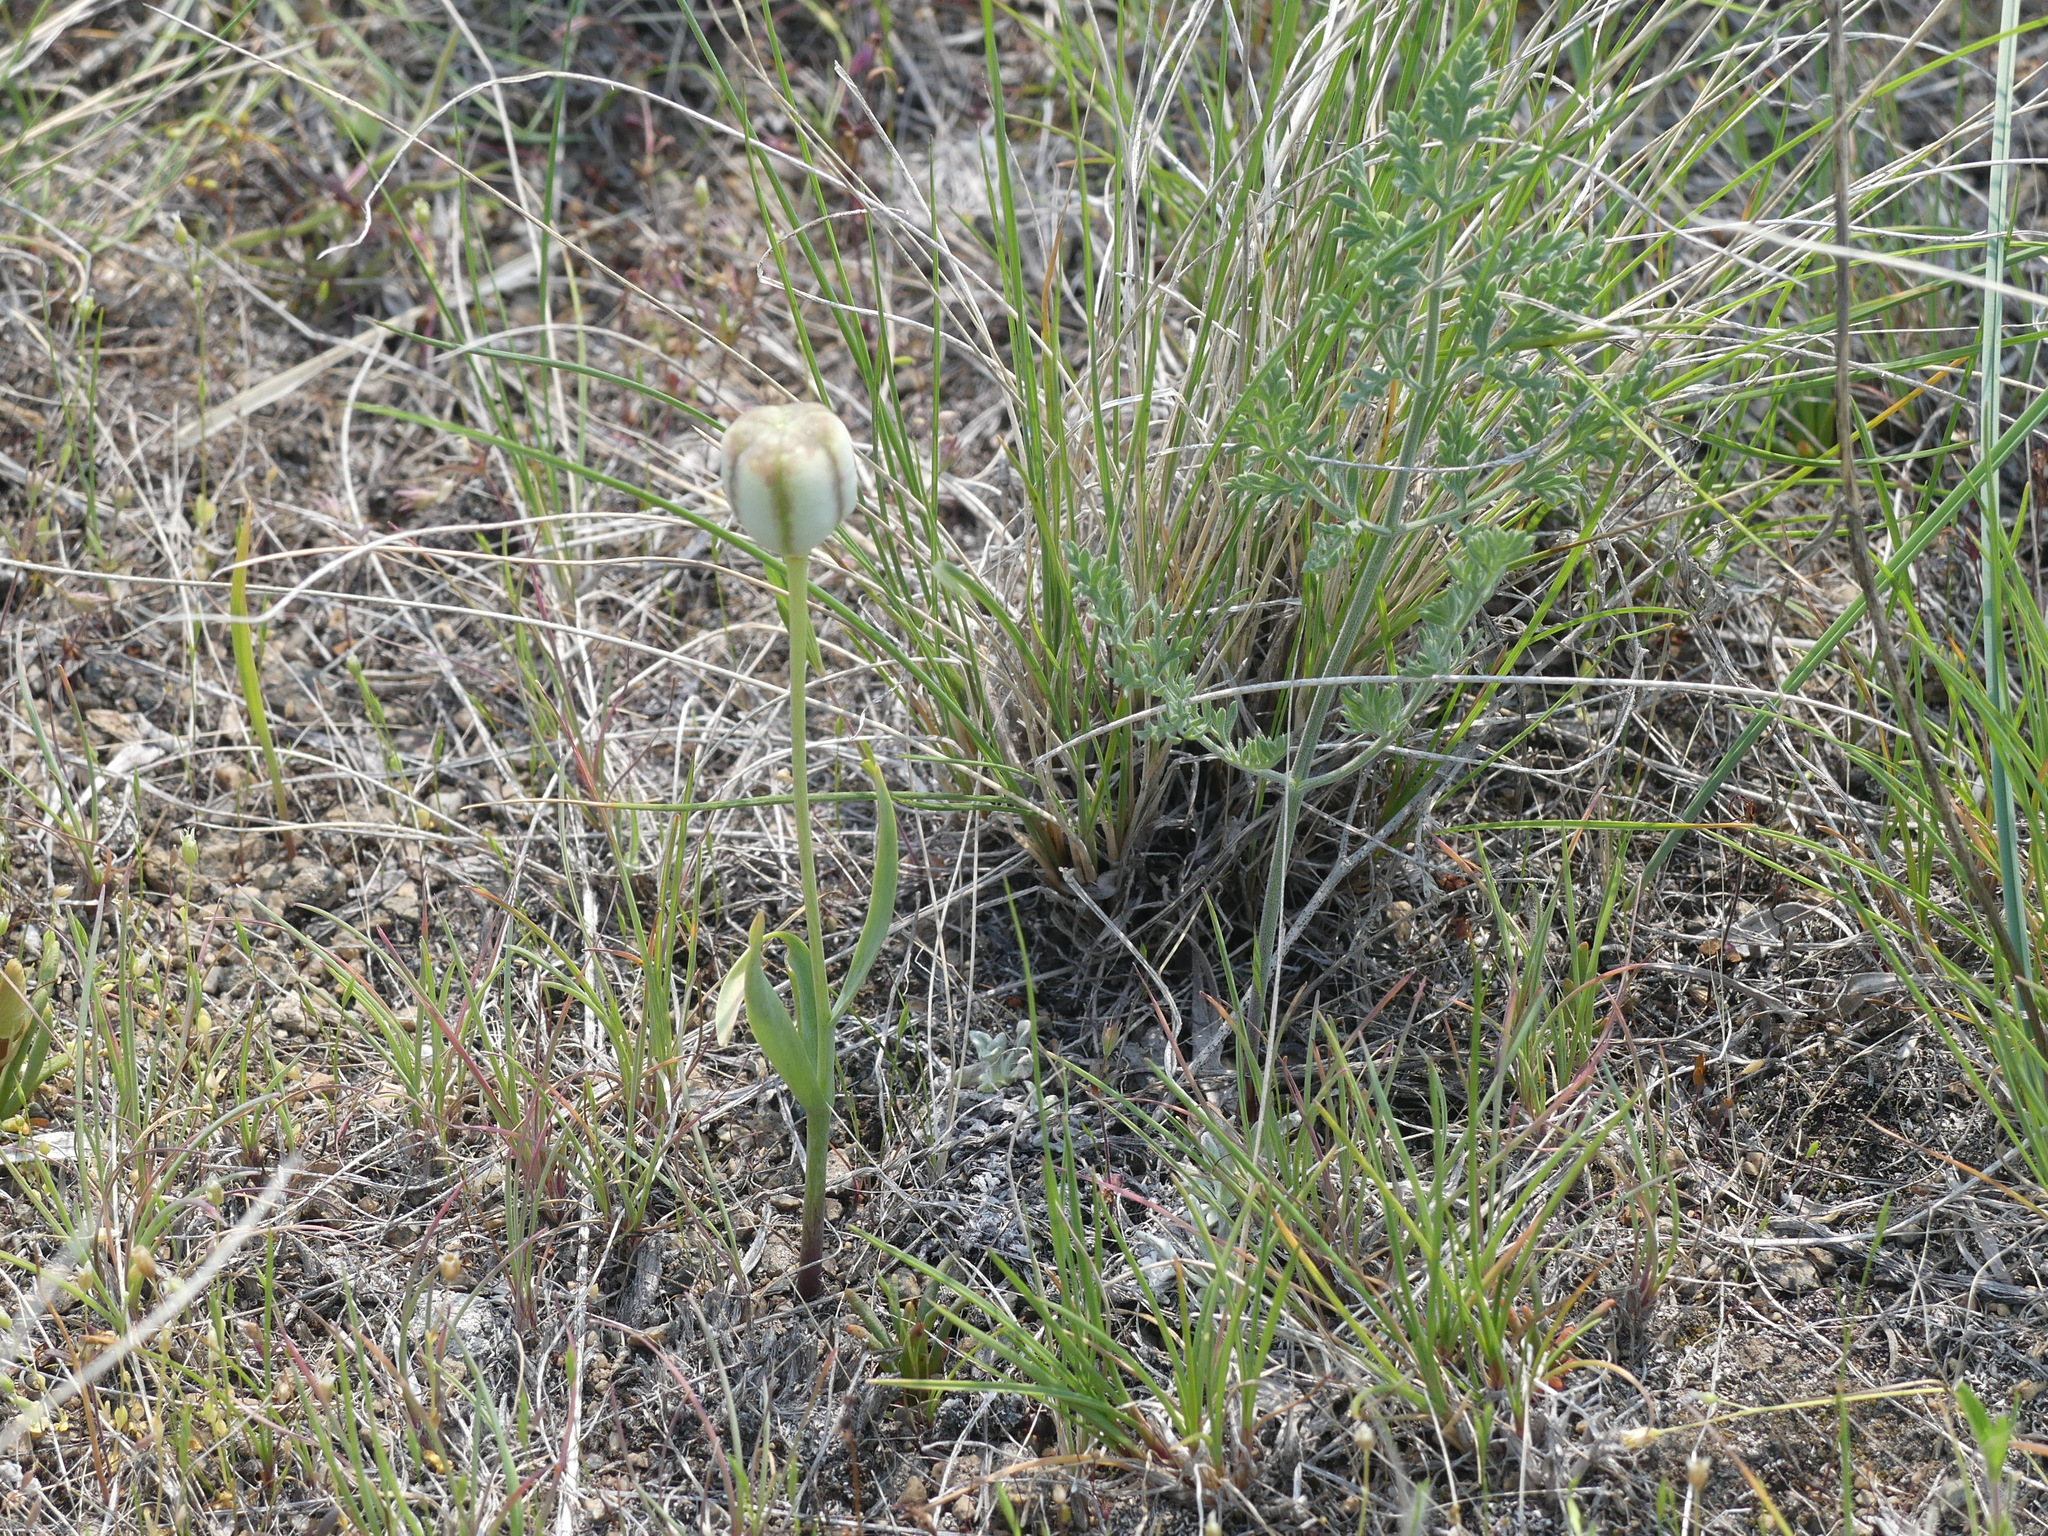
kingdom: Plantae
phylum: Tracheophyta
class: Liliopsida
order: Liliales
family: Liliaceae
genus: Fritillaria
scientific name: Fritillaria pudica
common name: Yellow fritillary
